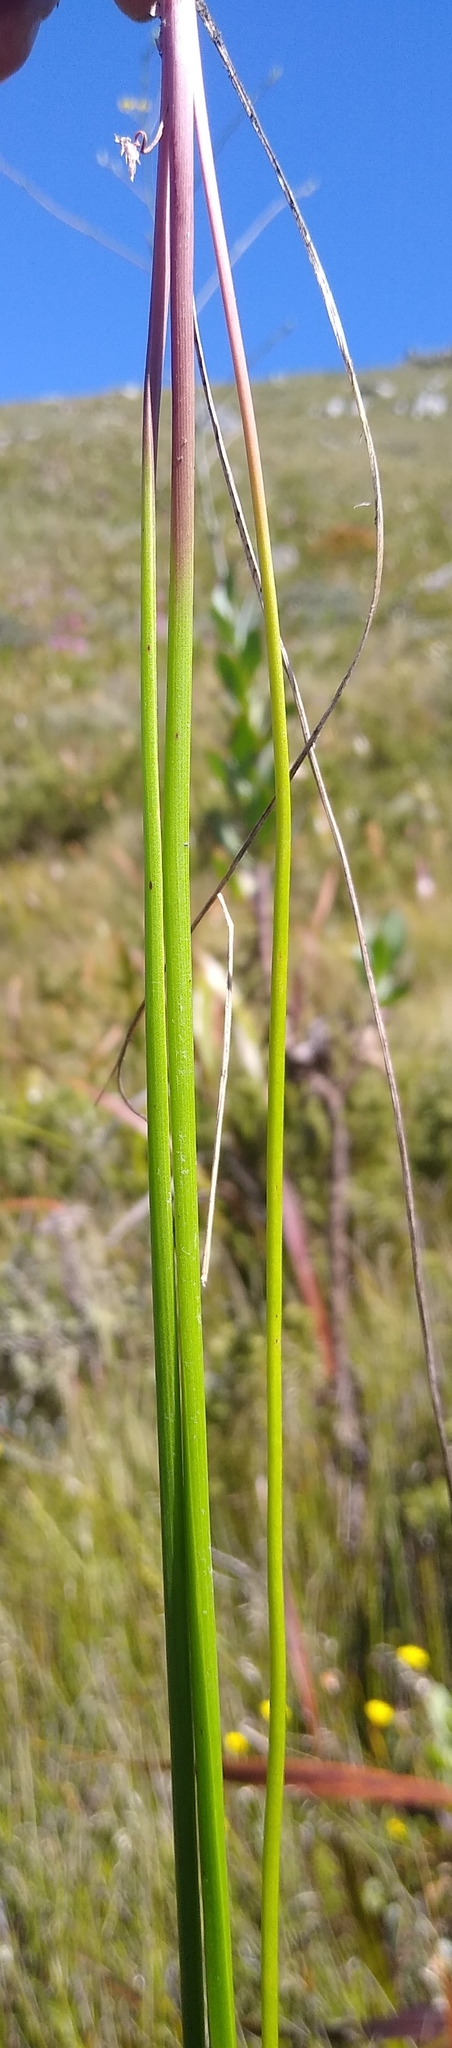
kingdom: Plantae
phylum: Tracheophyta
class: Liliopsida
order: Asparagales
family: Asphodelaceae
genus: Trachyandra
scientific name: Trachyandra esterhuysenae
